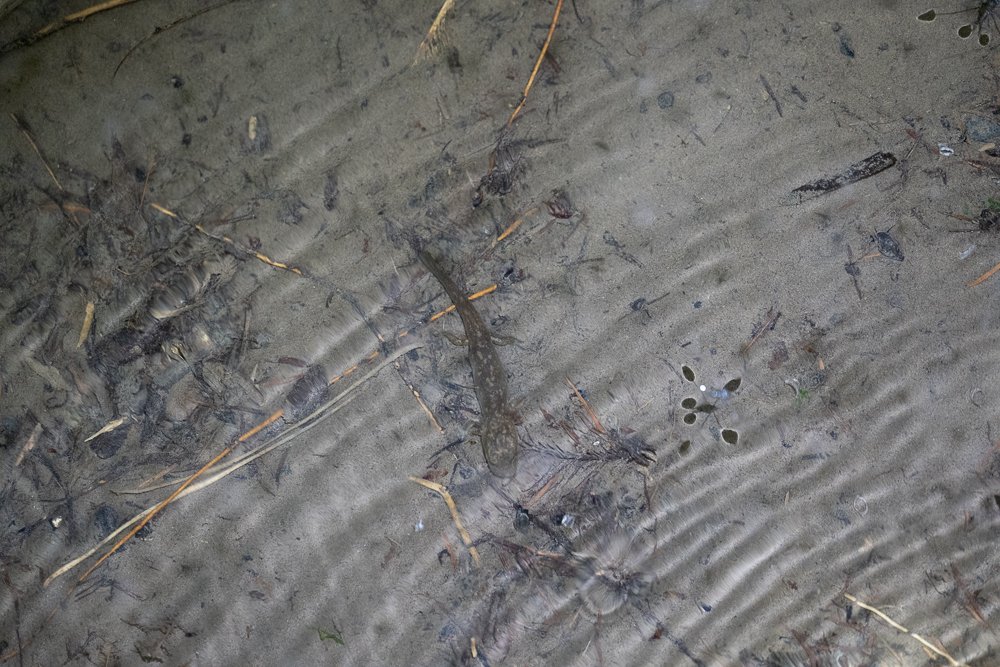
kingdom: Animalia
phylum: Chordata
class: Amphibia
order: Caudata
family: Ambystomatidae
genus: Dicamptodon
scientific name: Dicamptodon ensatus
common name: California giant salamander
